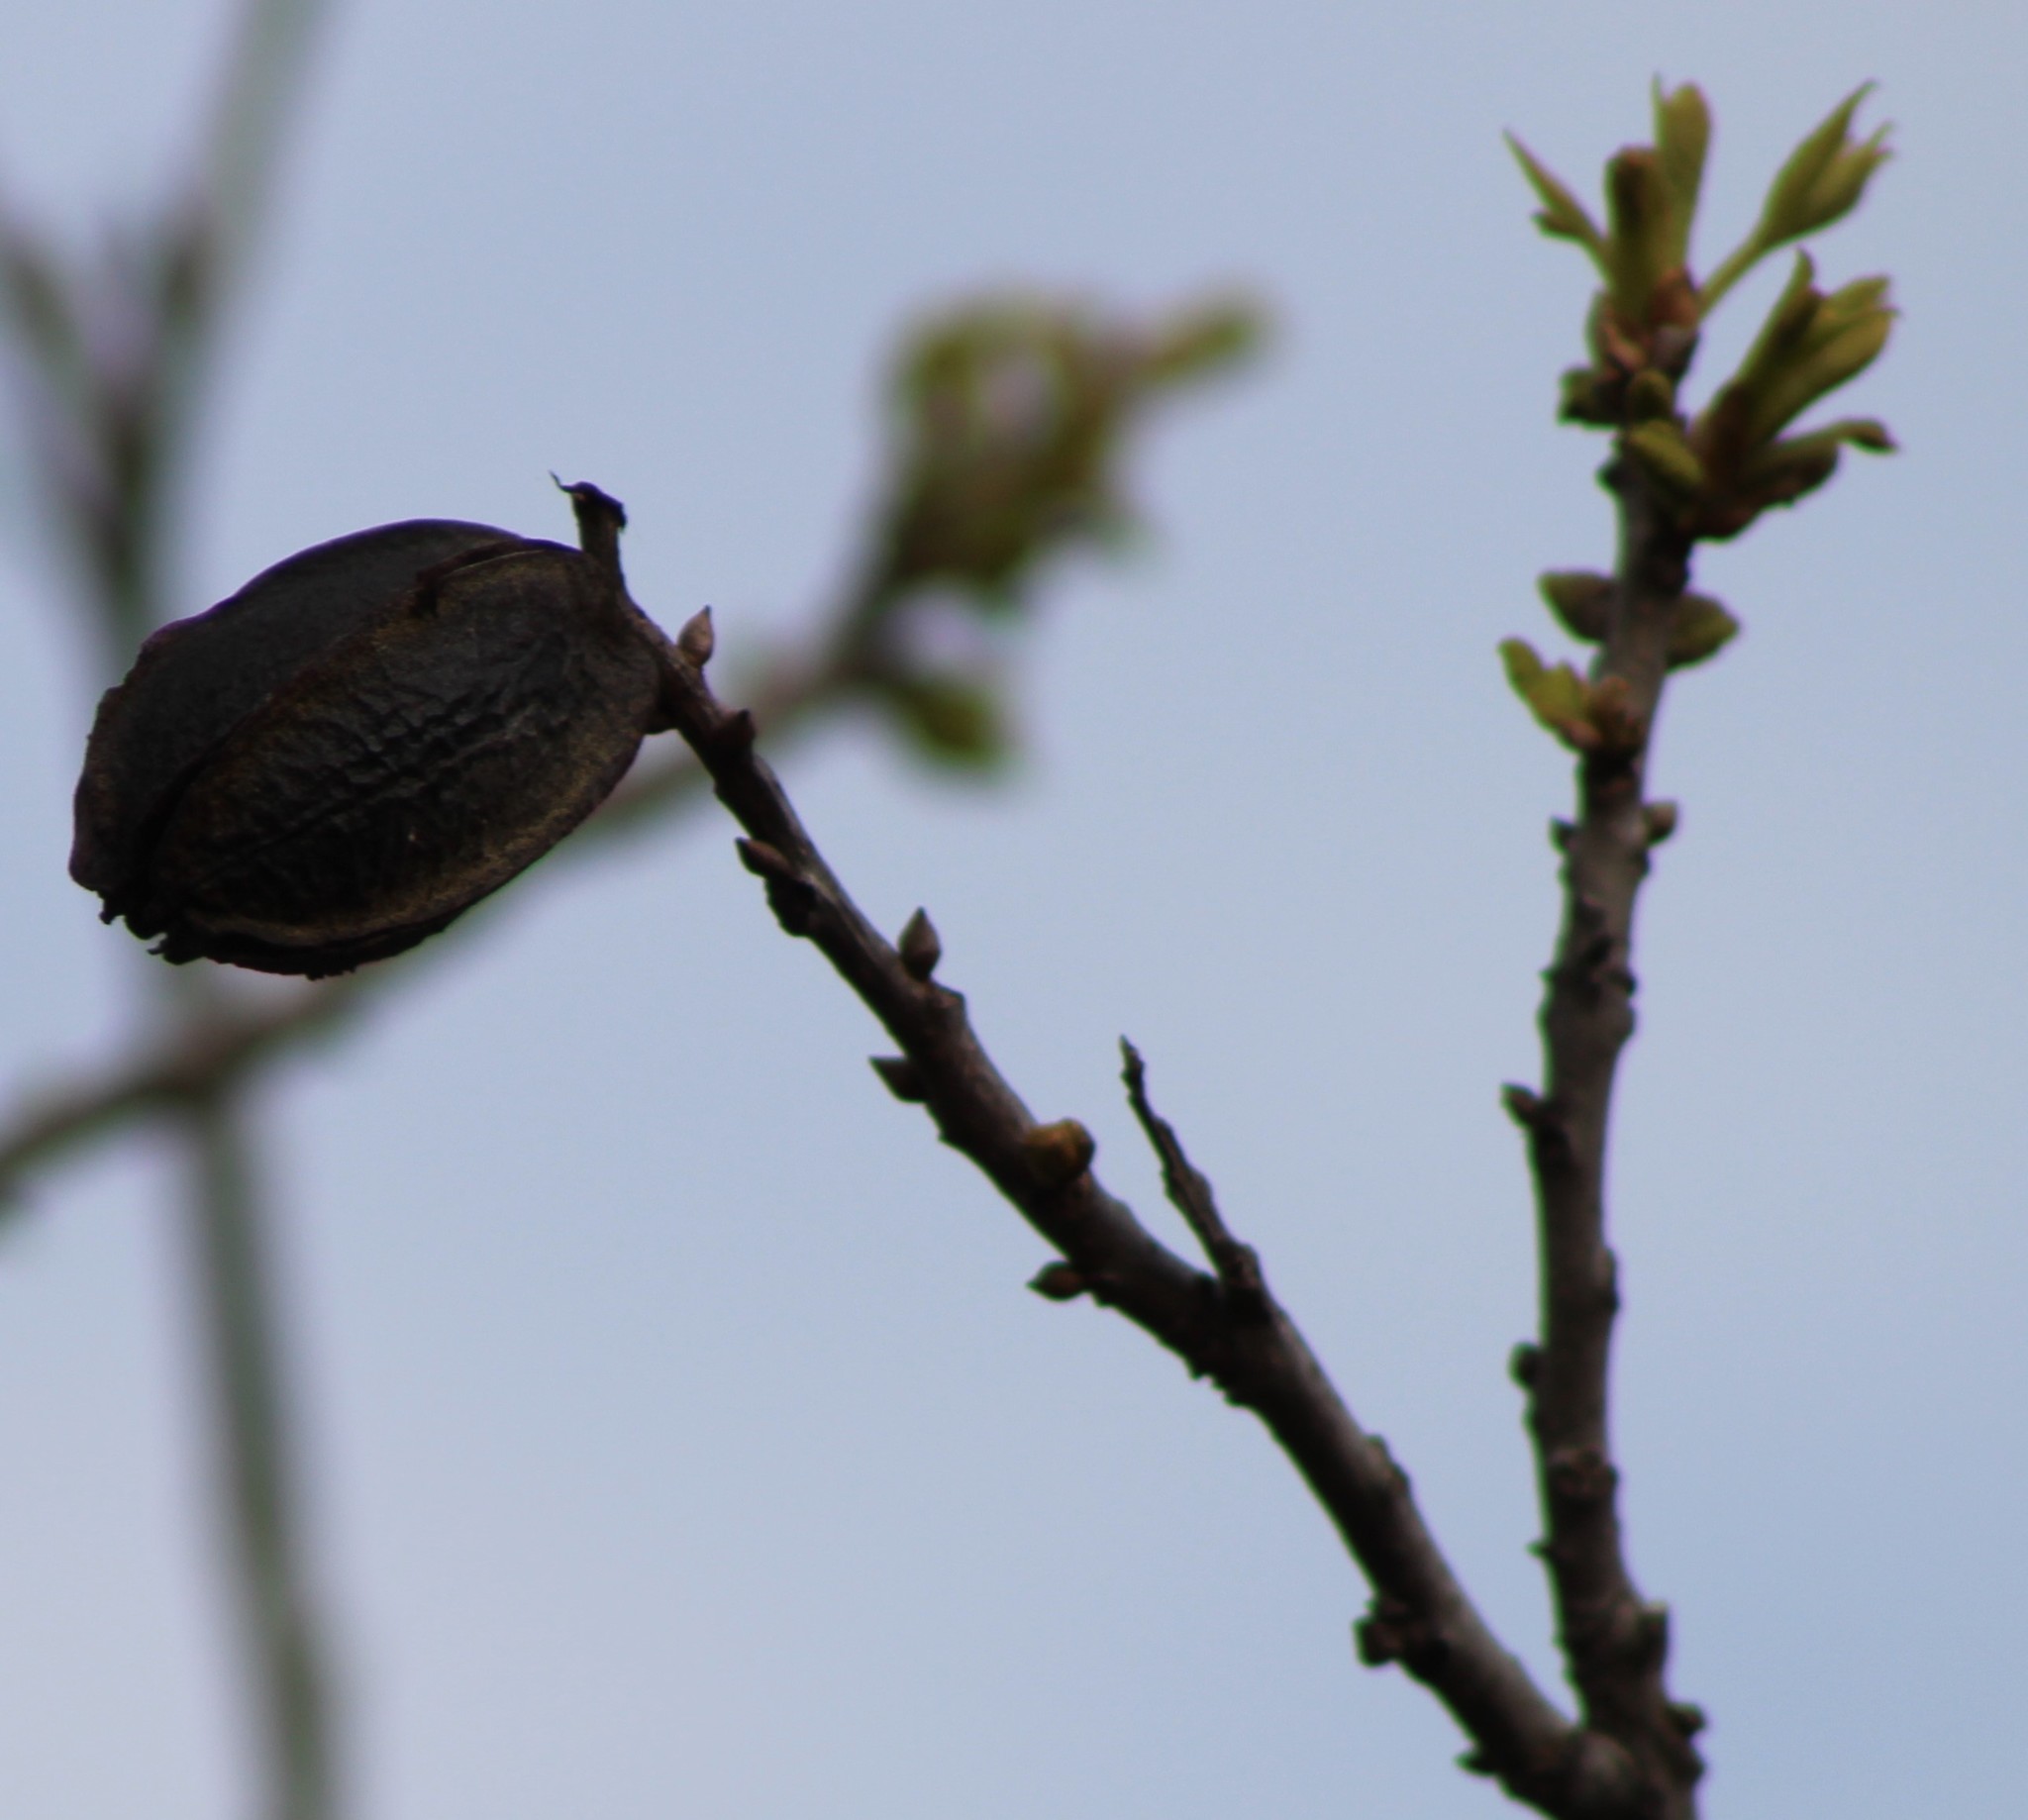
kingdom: Plantae
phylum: Tracheophyta
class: Magnoliopsida
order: Fagales
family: Juglandaceae
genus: Carya
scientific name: Carya illinoinensis
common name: Pecan
